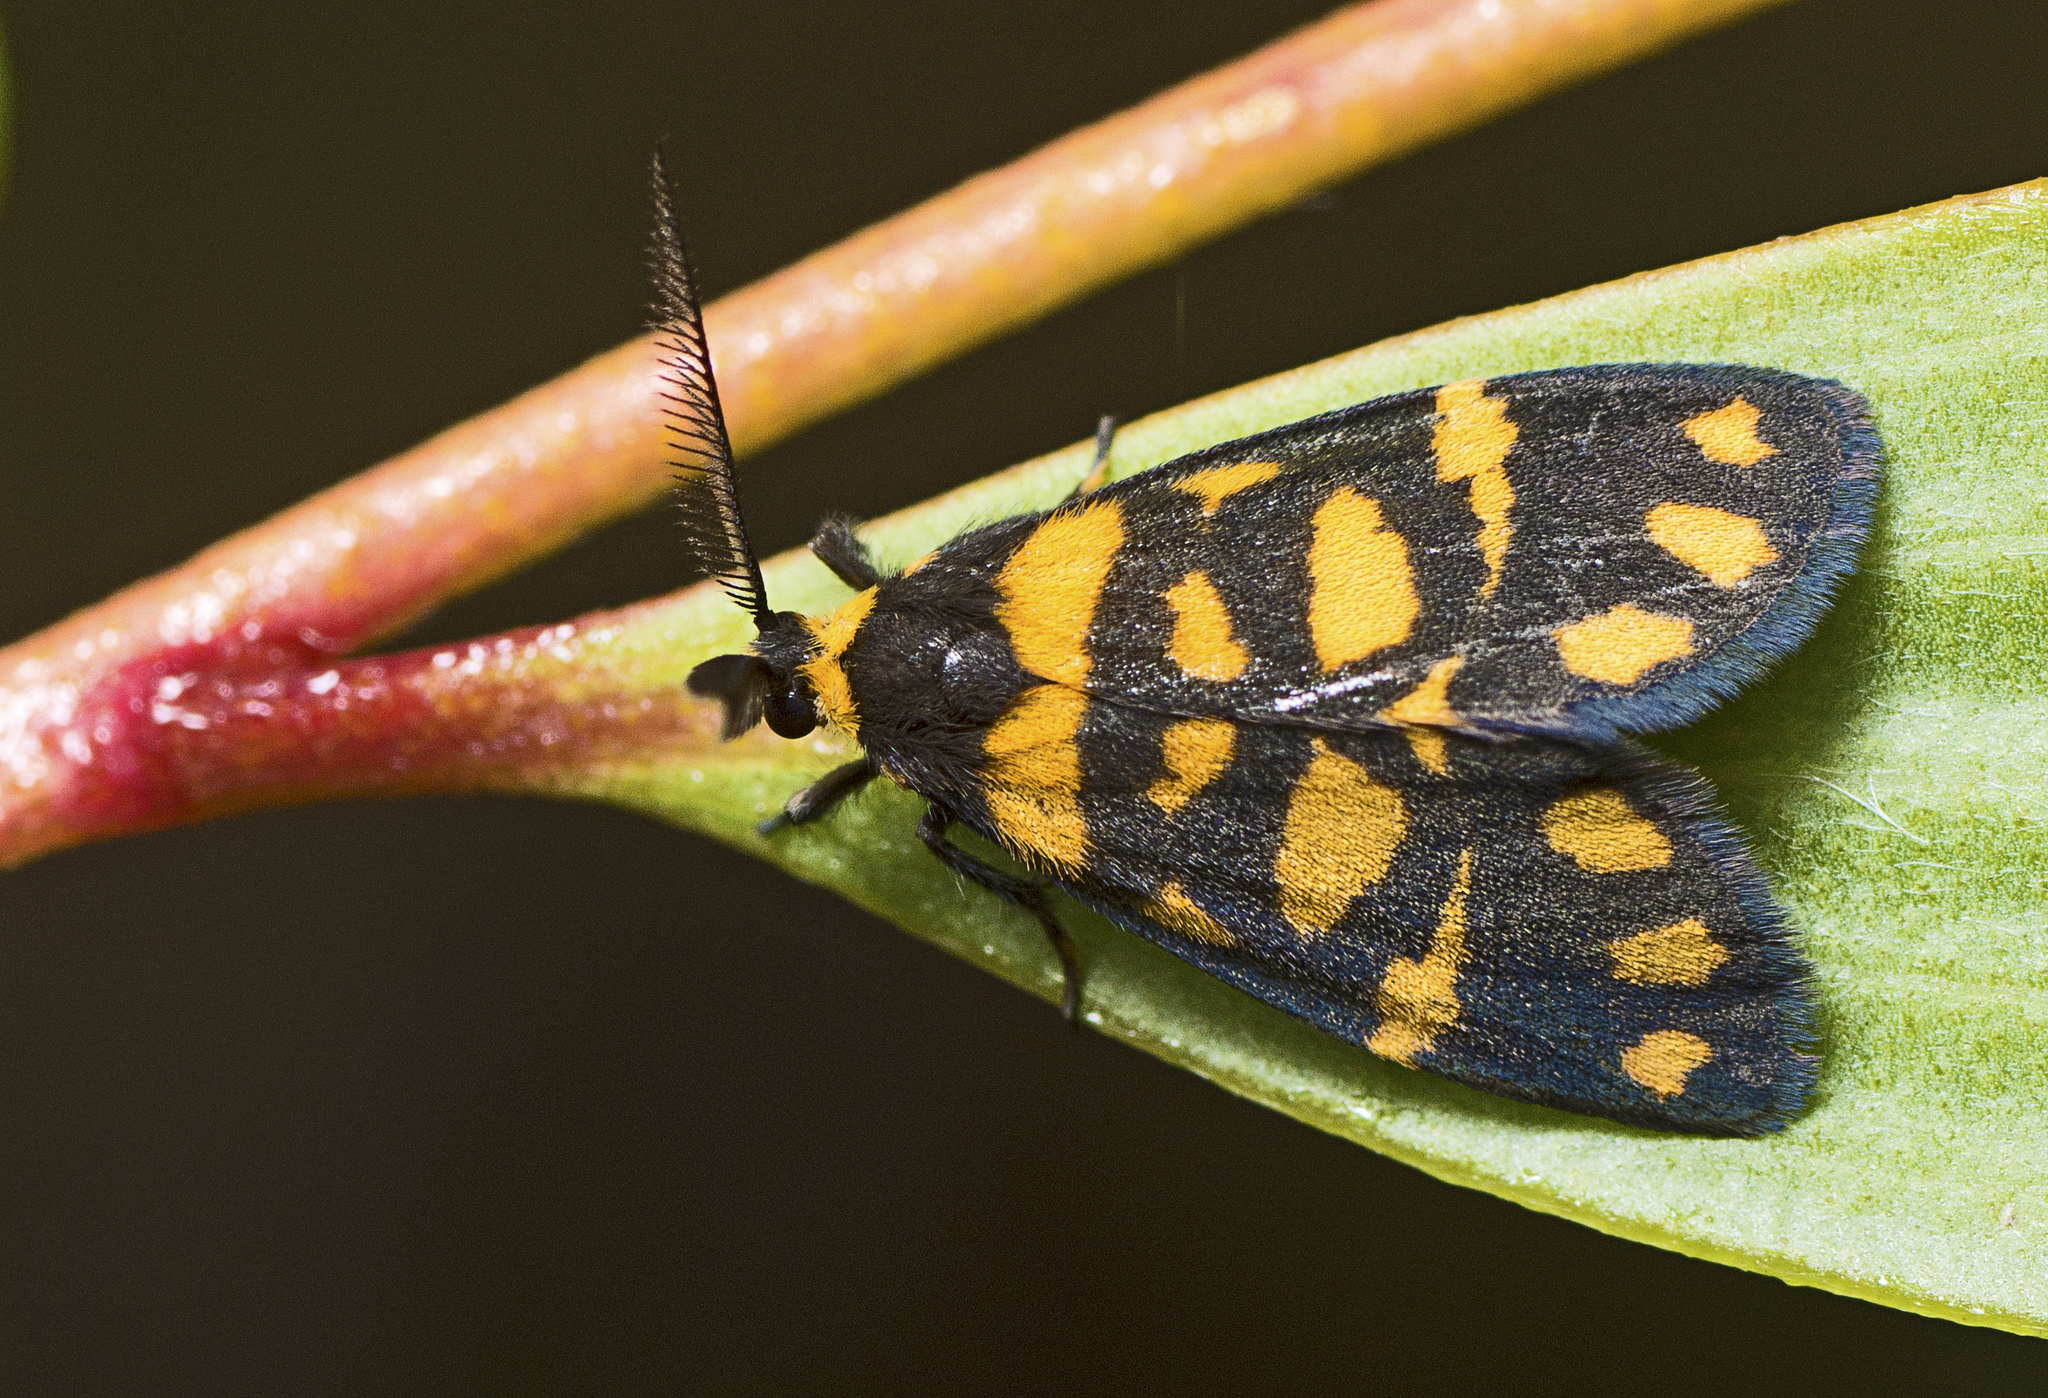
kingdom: Animalia
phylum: Arthropoda
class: Insecta
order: Lepidoptera
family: Erebidae
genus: Asura
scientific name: Asura lydia
